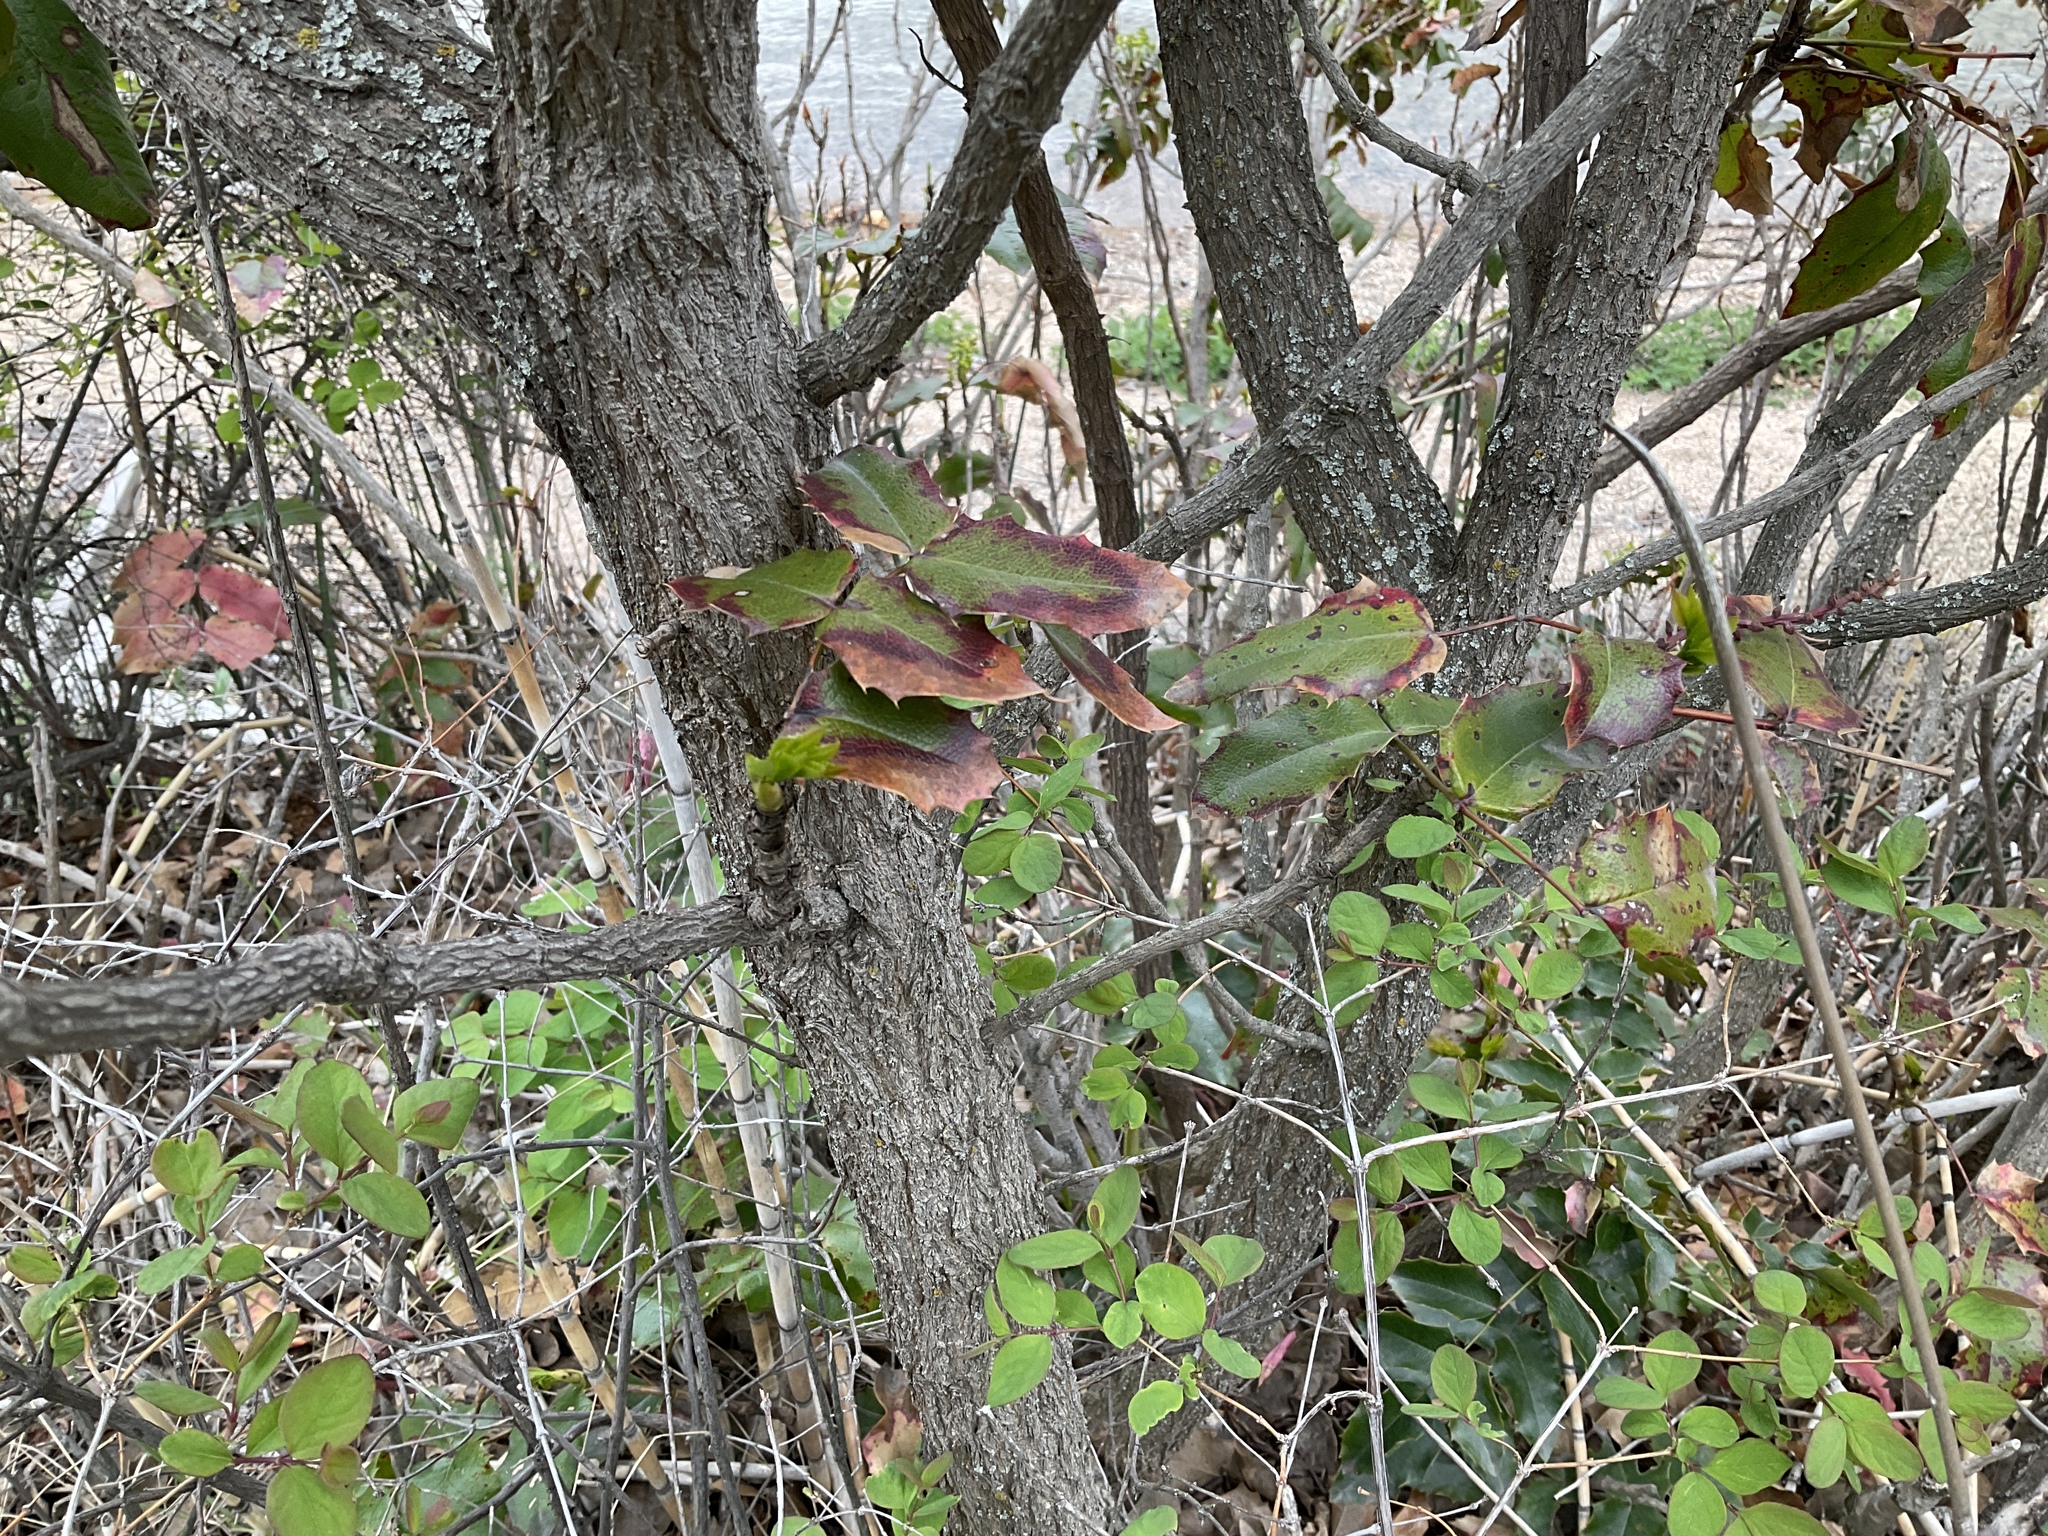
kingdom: Plantae
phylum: Tracheophyta
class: Magnoliopsida
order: Ranunculales
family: Berberidaceae
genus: Mahonia
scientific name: Mahonia aquifolium
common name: Oregon-grape
